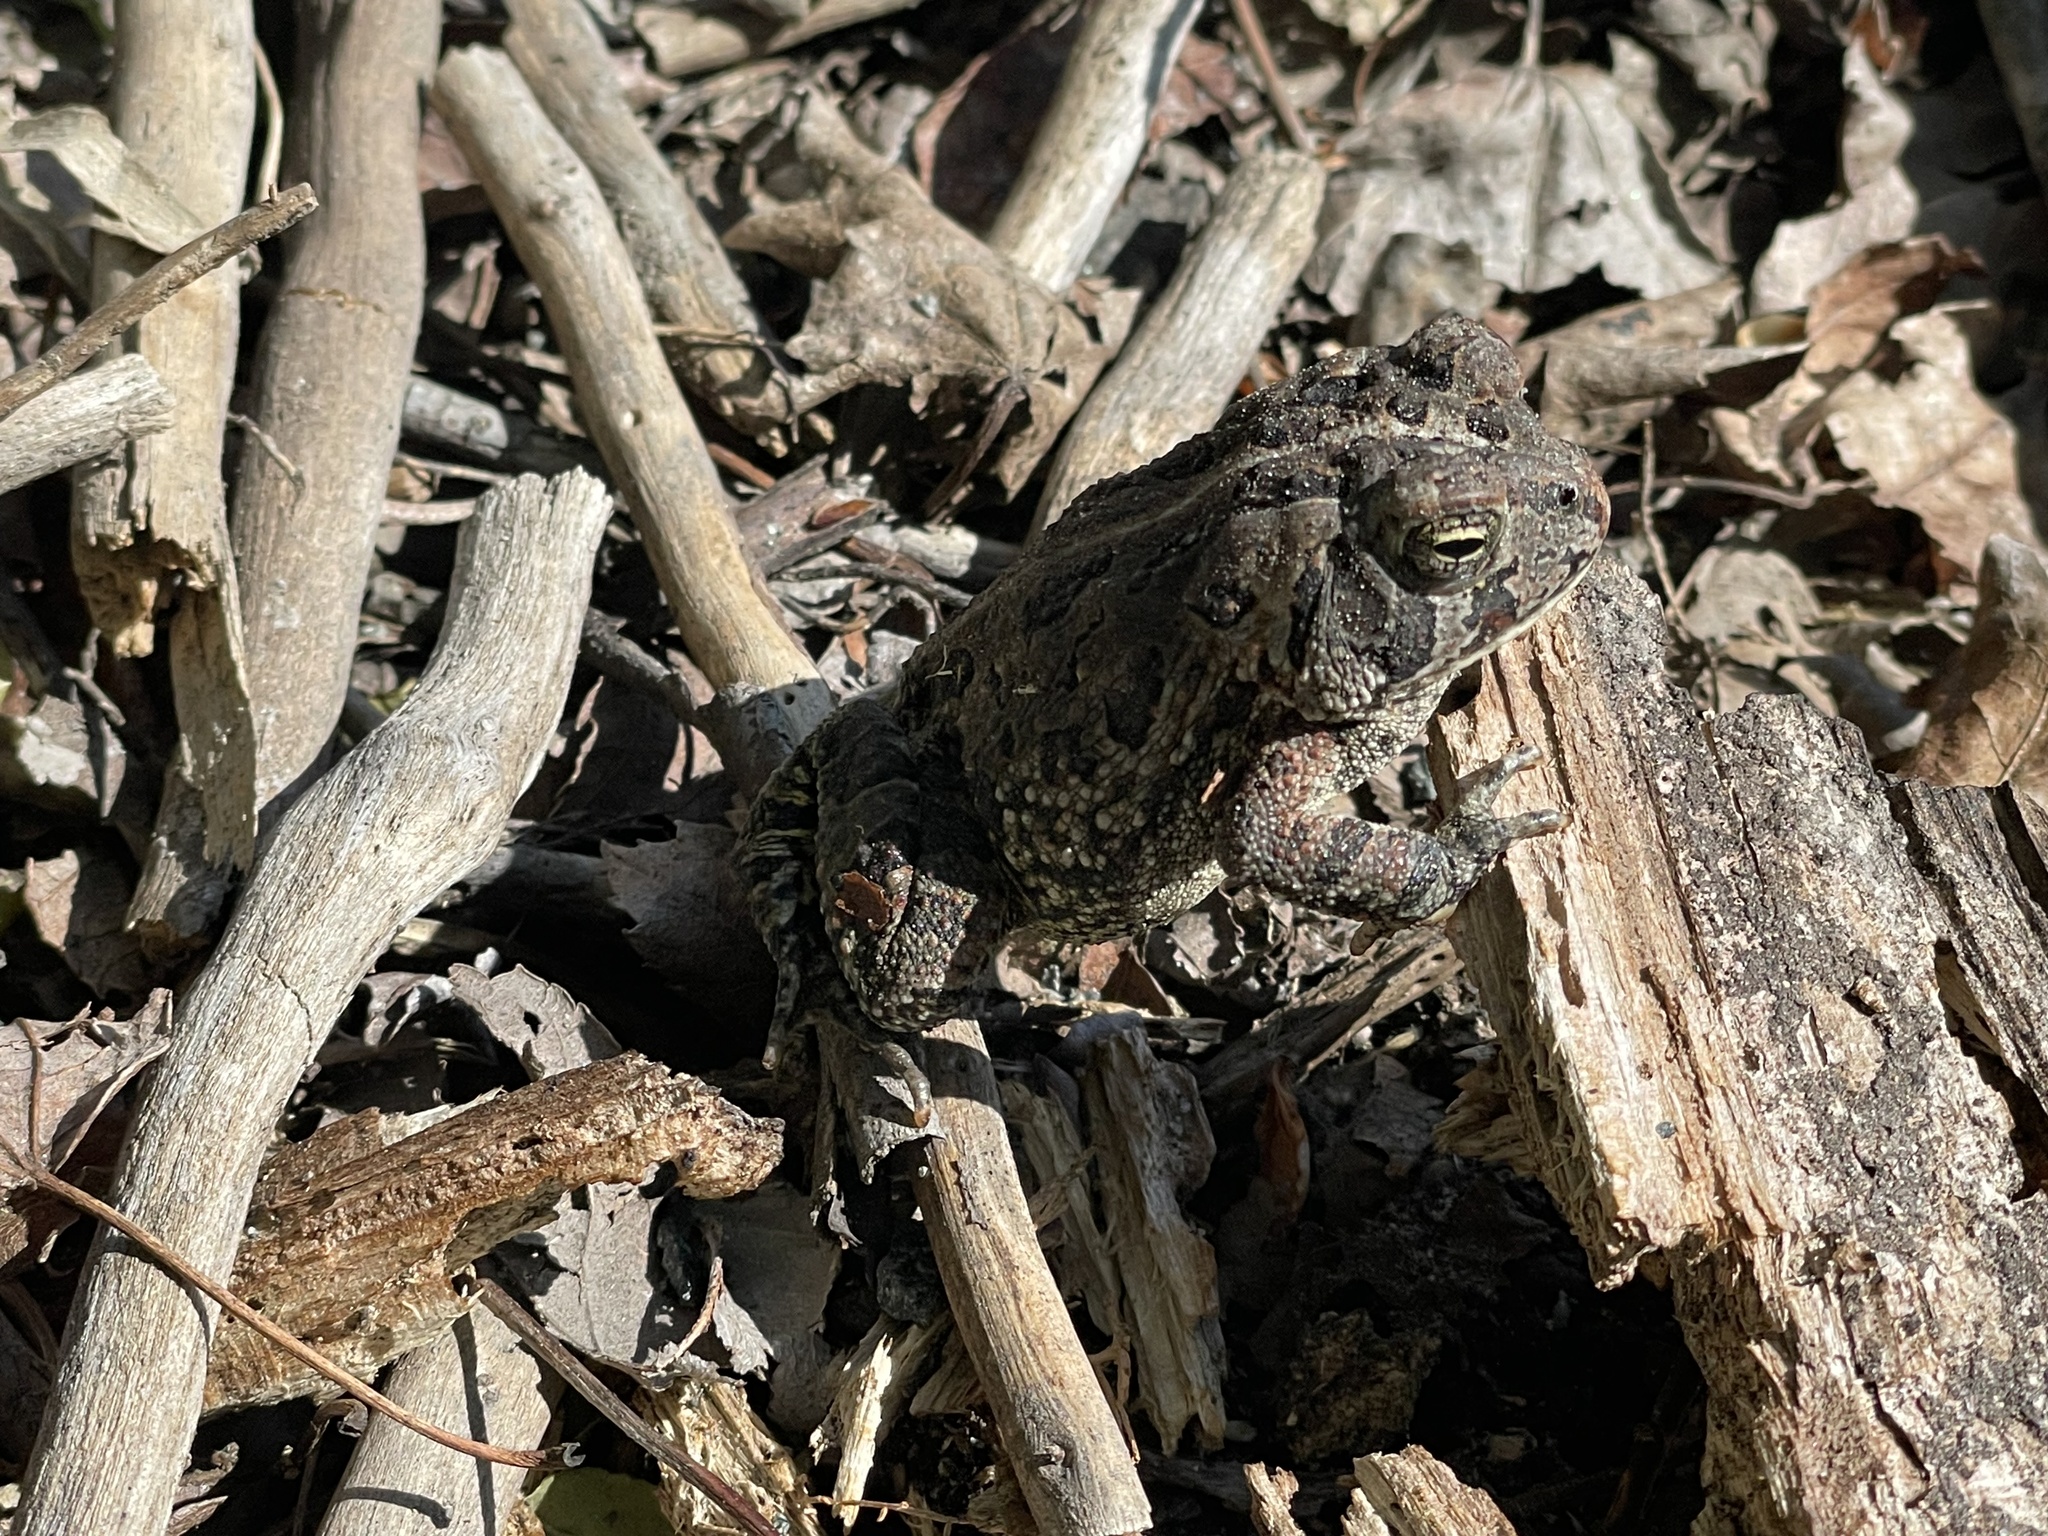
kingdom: Animalia
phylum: Chordata
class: Amphibia
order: Anura
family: Bufonidae
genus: Anaxyrus
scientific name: Anaxyrus fowleri
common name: Fowler's toad
